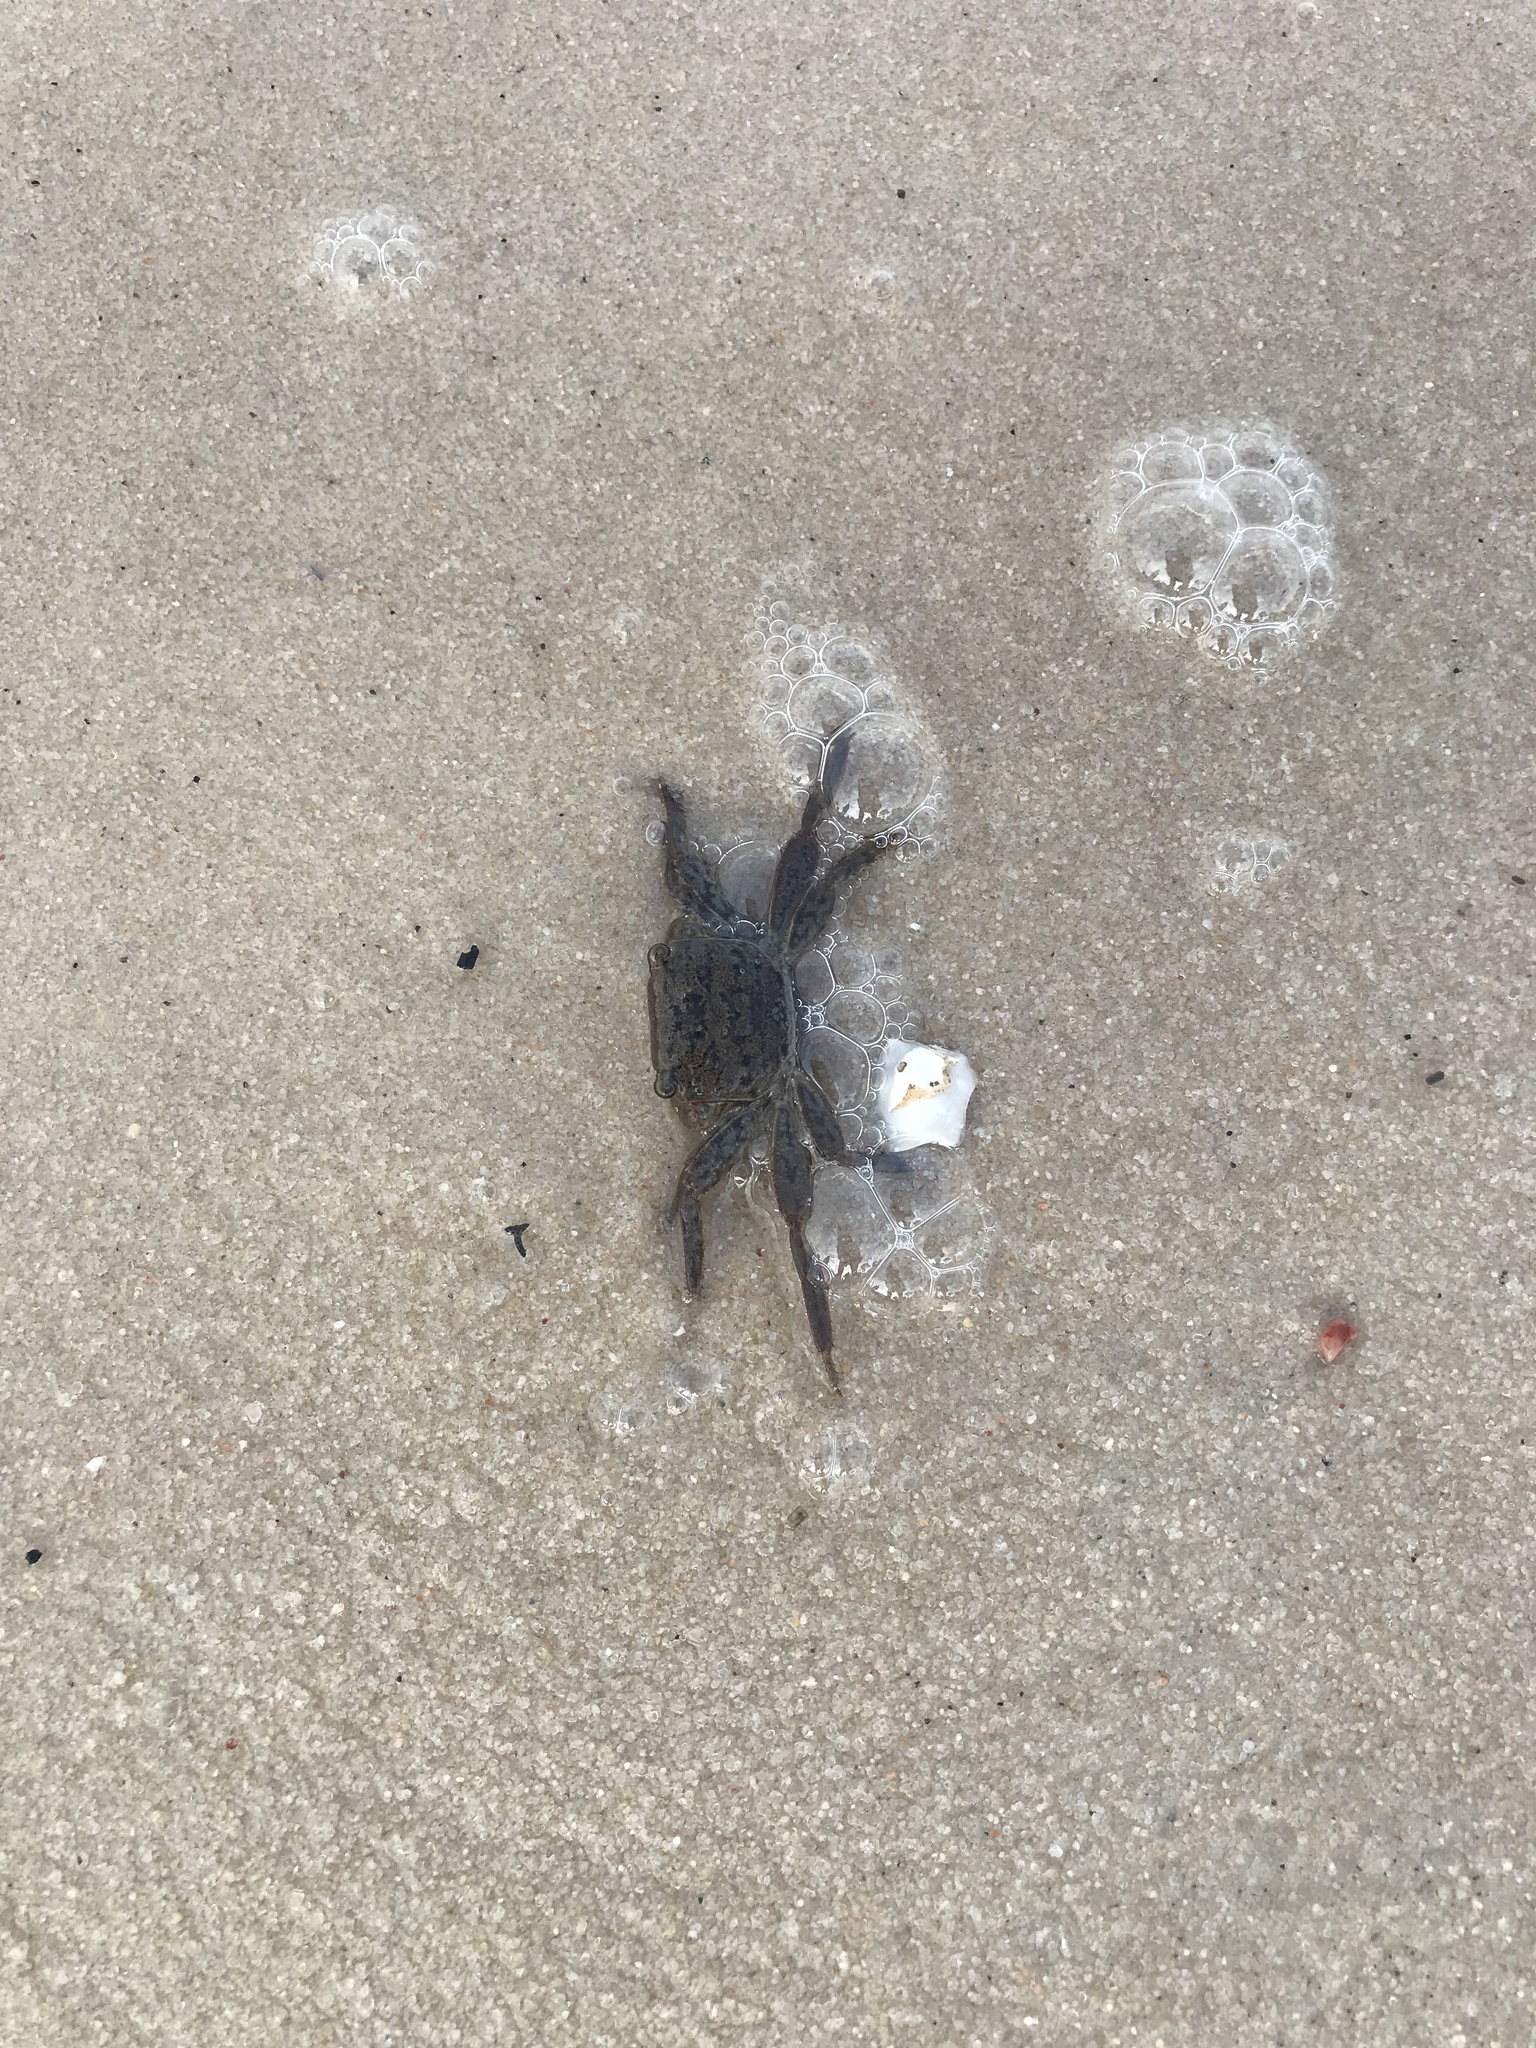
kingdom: Animalia
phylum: Arthropoda
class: Malacostraca
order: Decapoda
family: Sesarmidae
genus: Armases
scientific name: Armases cinereum
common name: Squareback marsh crab
